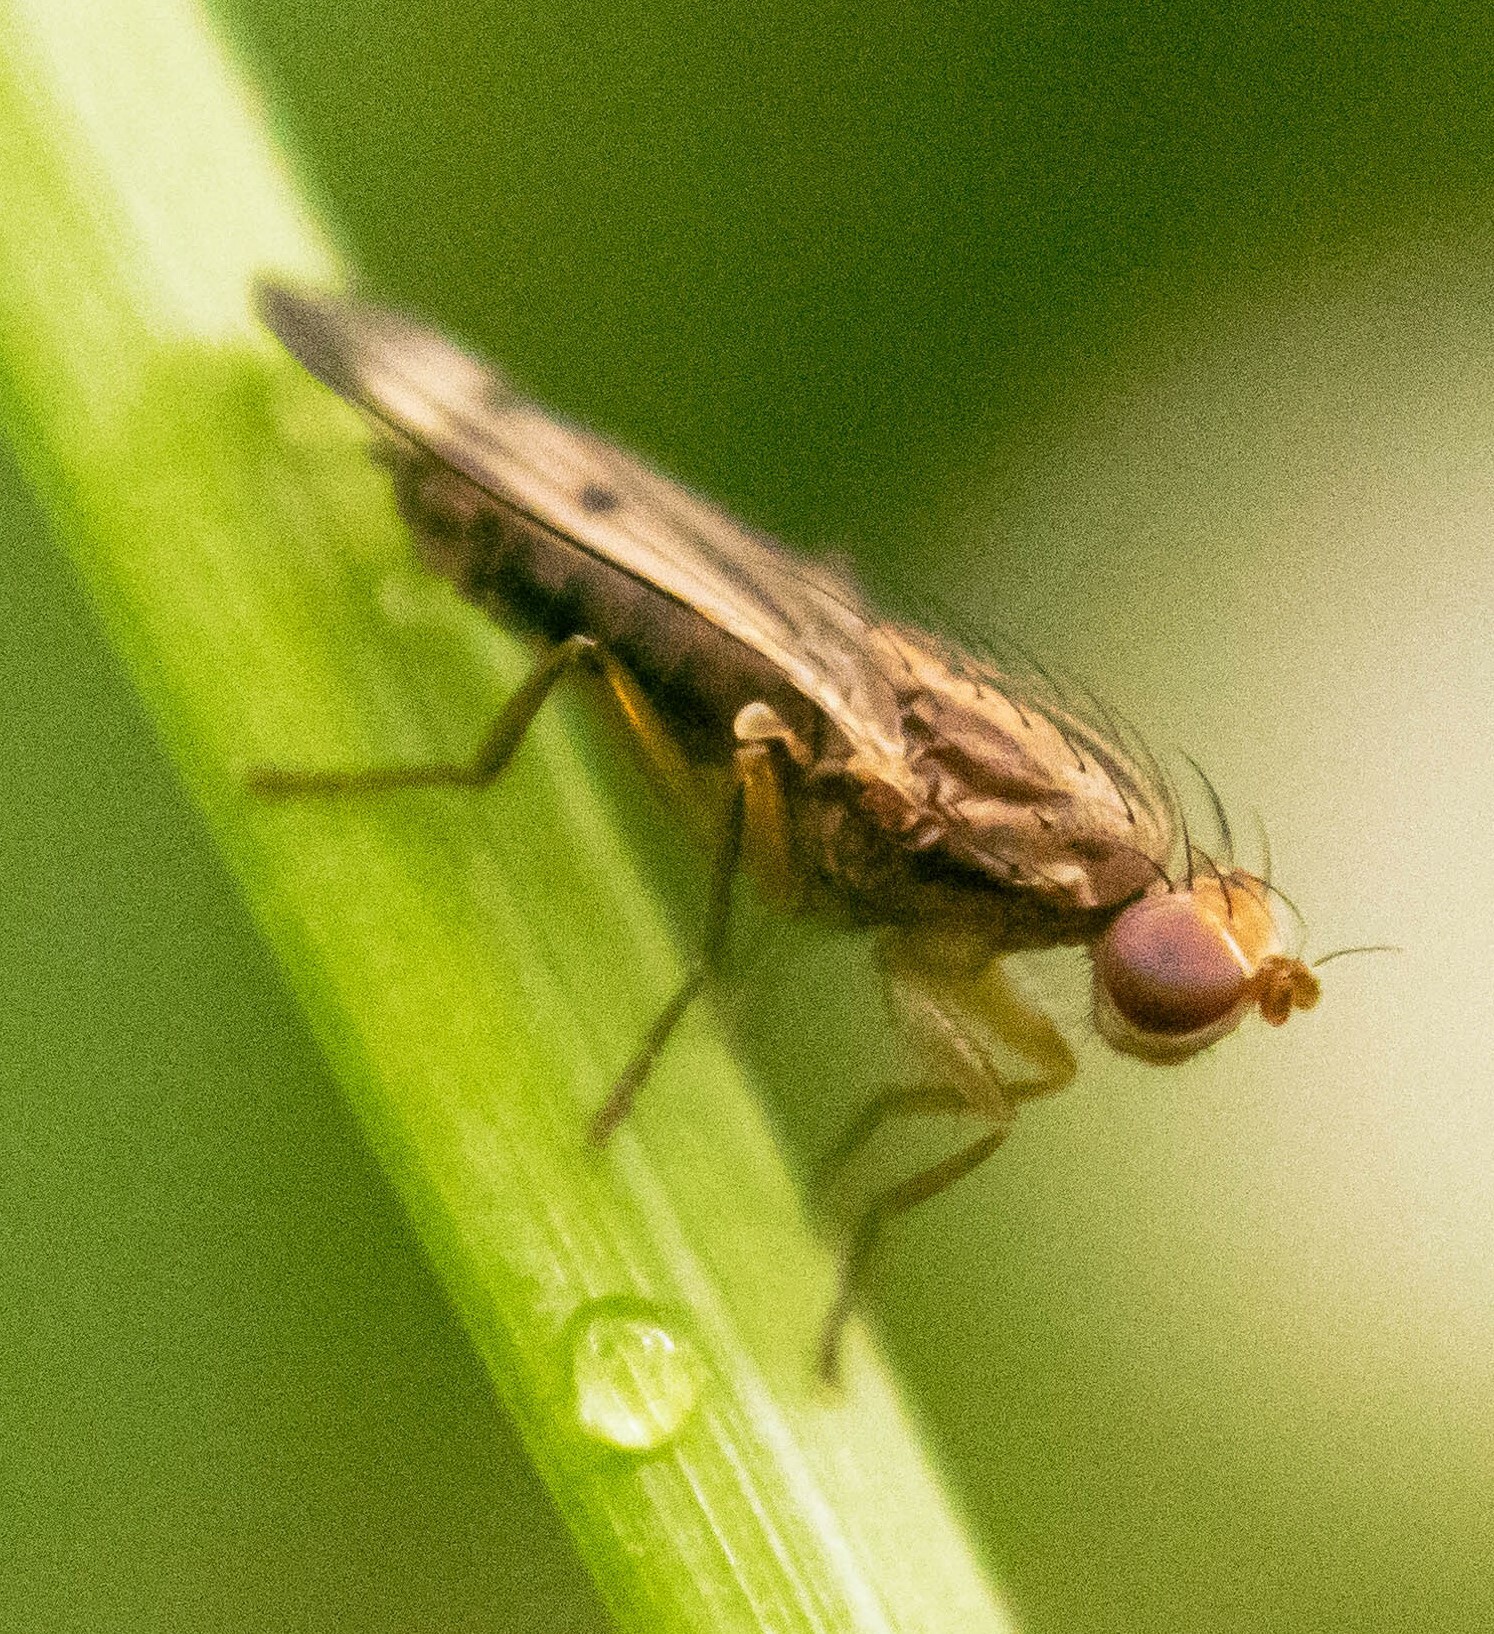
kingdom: Animalia
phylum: Arthropoda
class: Insecta
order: Diptera
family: Opomyzidae
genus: Opomyza
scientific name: Opomyza germinationis
